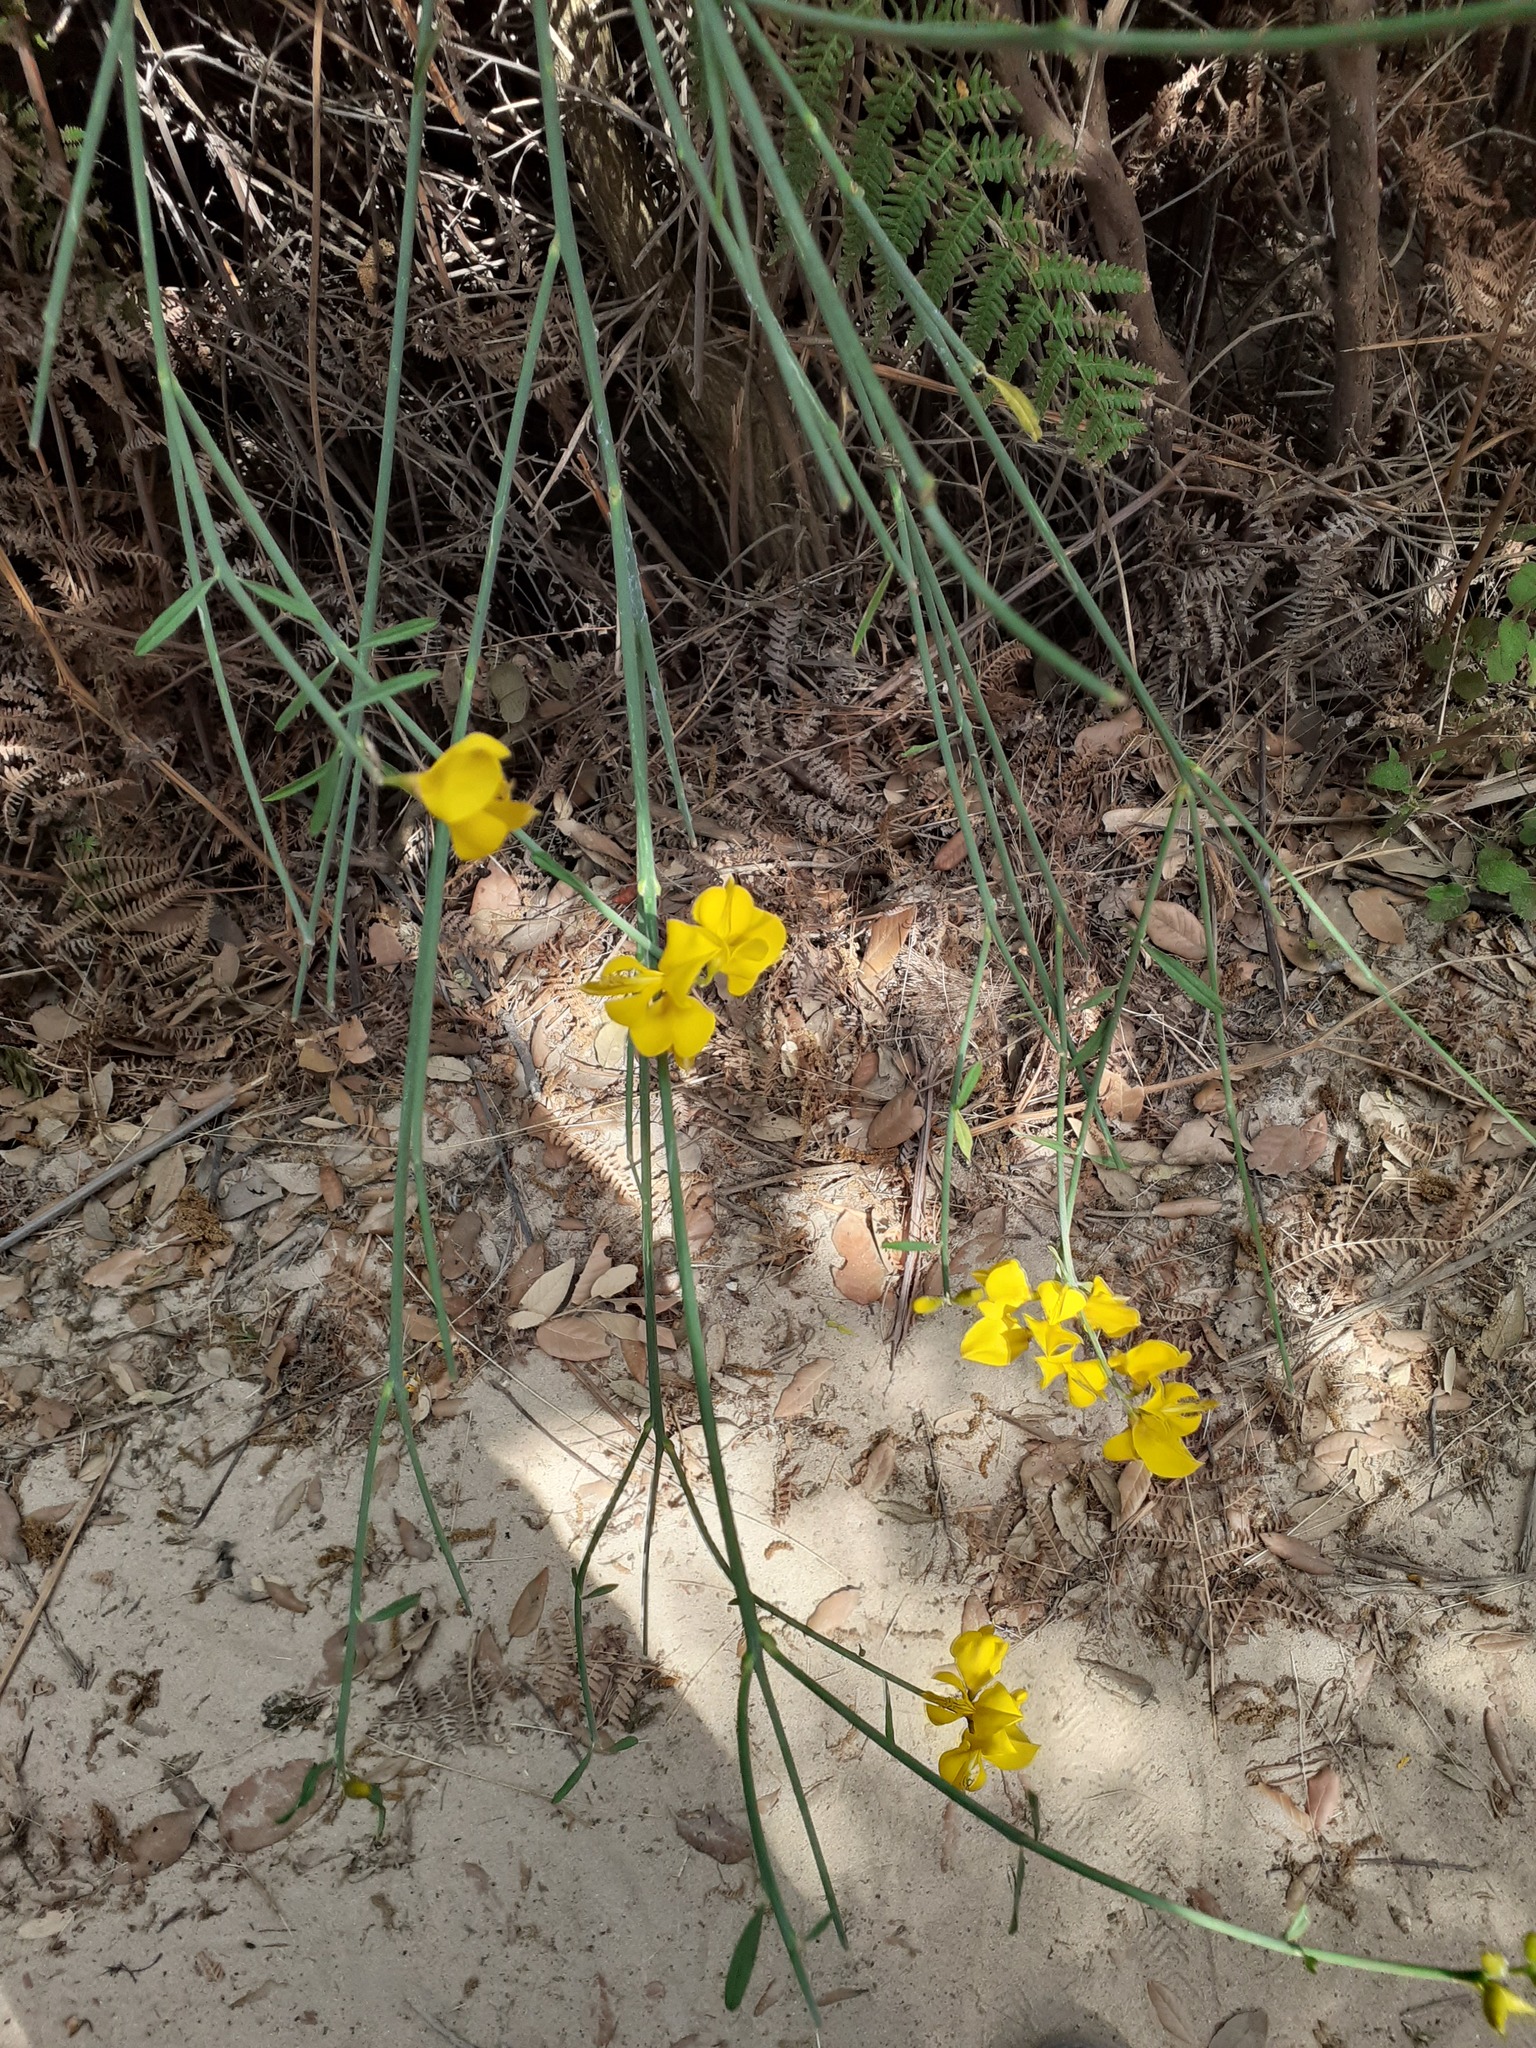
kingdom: Plantae
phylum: Tracheophyta
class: Magnoliopsida
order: Fabales
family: Fabaceae
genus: Spartium
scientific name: Spartium junceum
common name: Spanish broom
